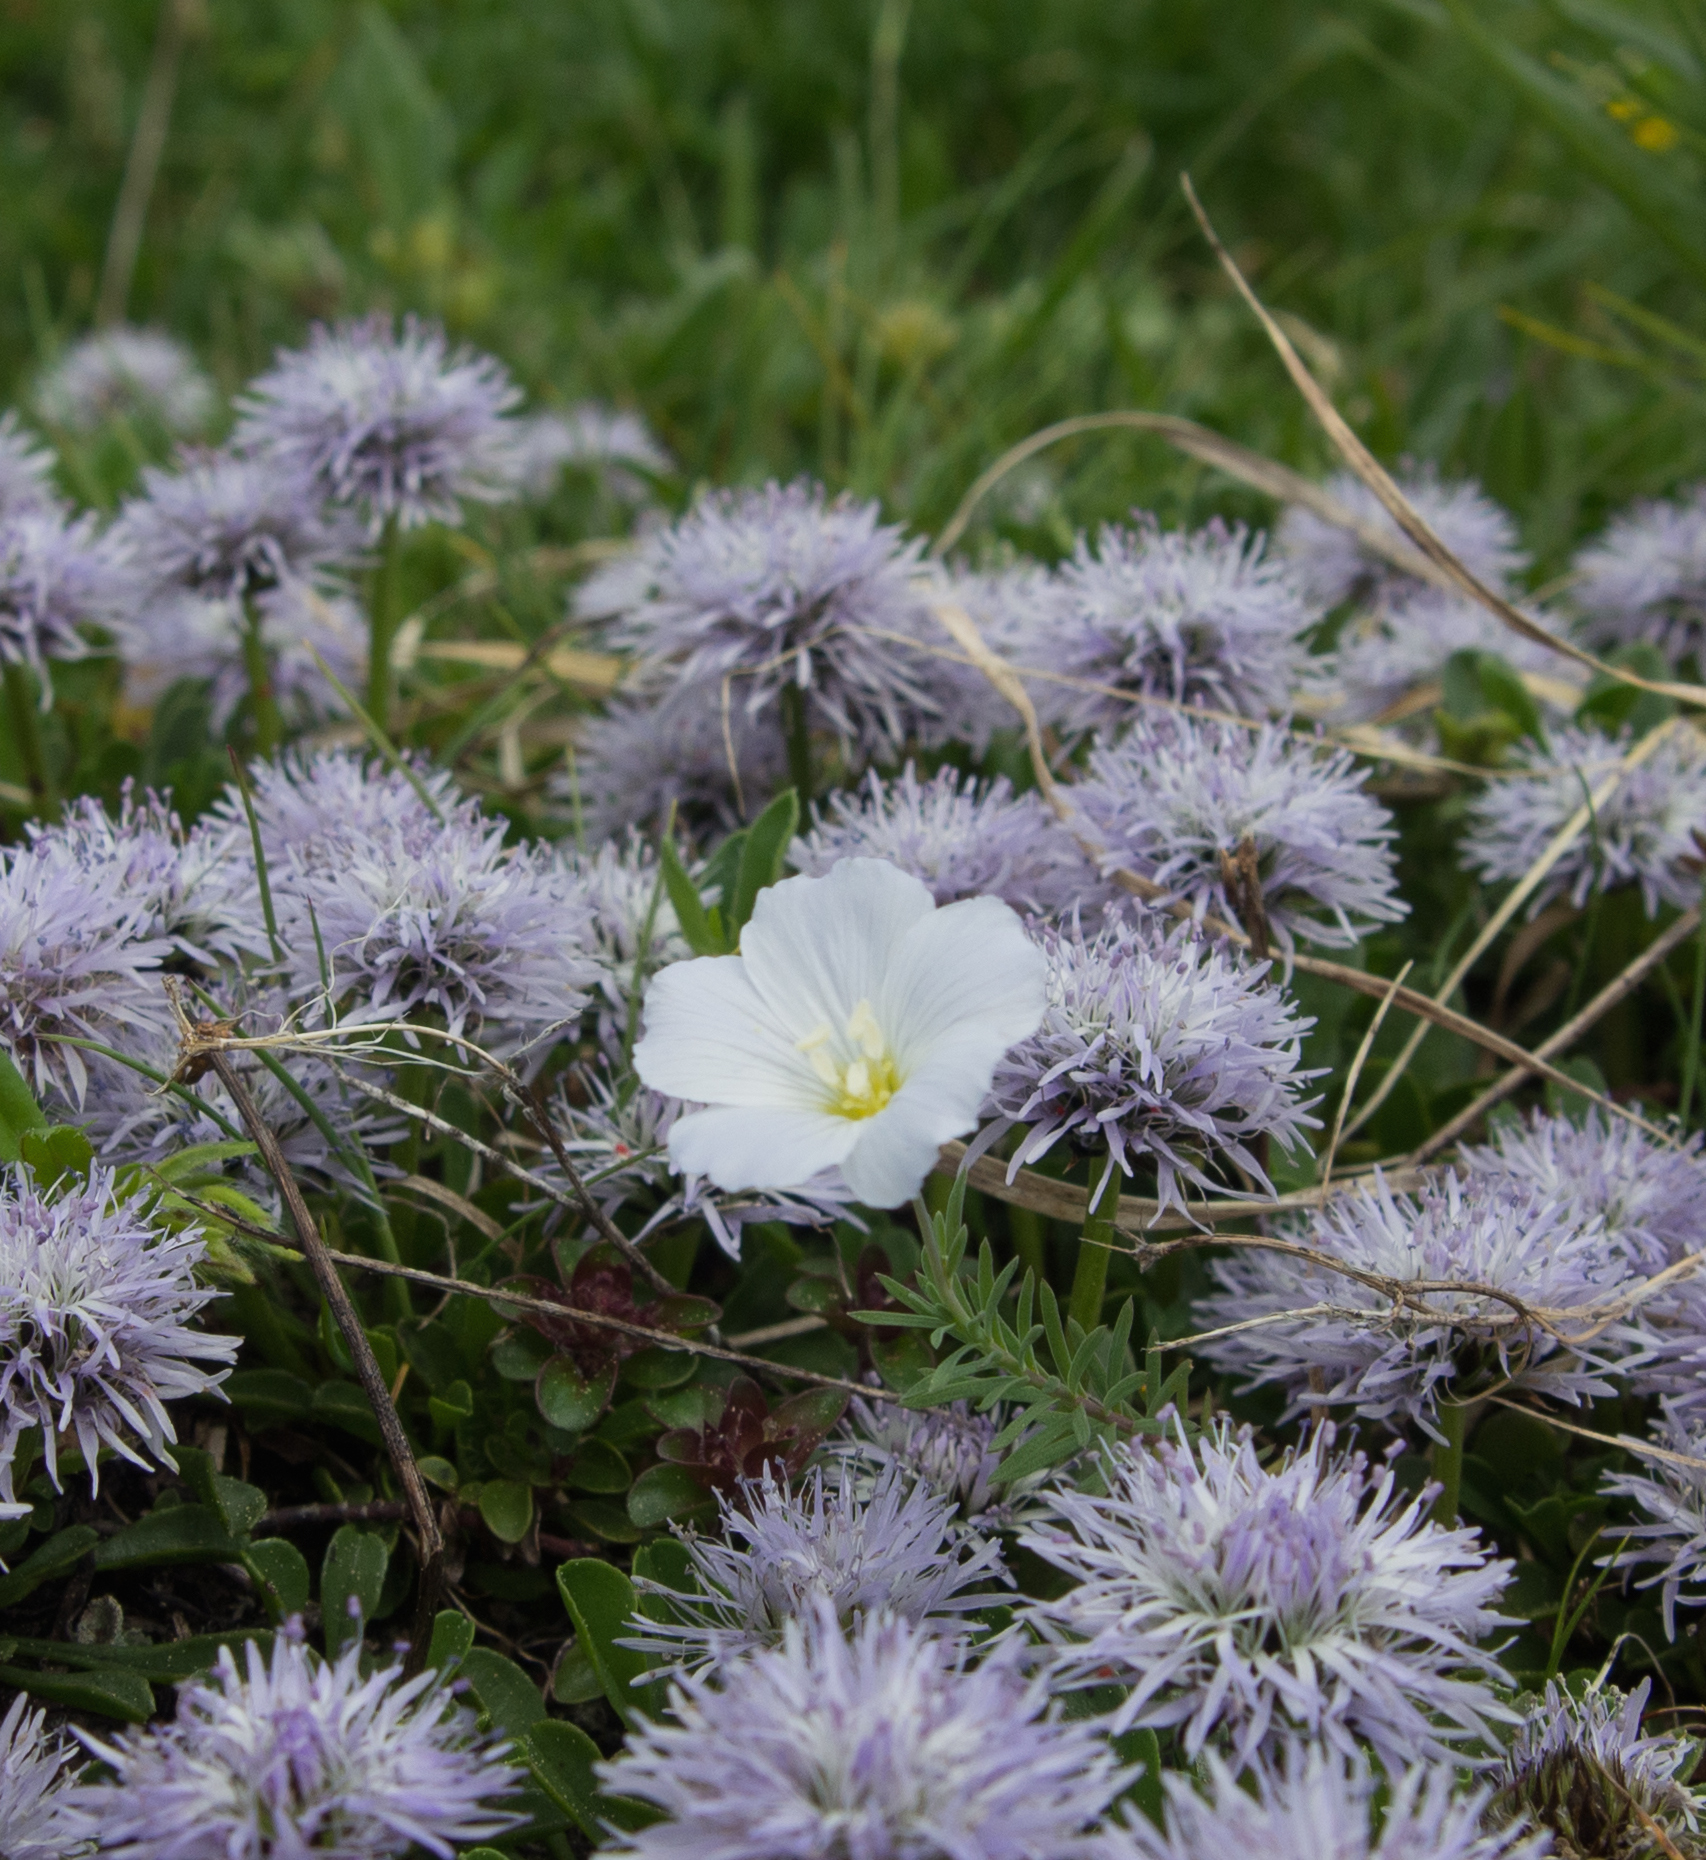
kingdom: Plantae
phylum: Tracheophyta
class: Magnoliopsida
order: Malpighiales
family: Linaceae
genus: Linum
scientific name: Linum alpinum
